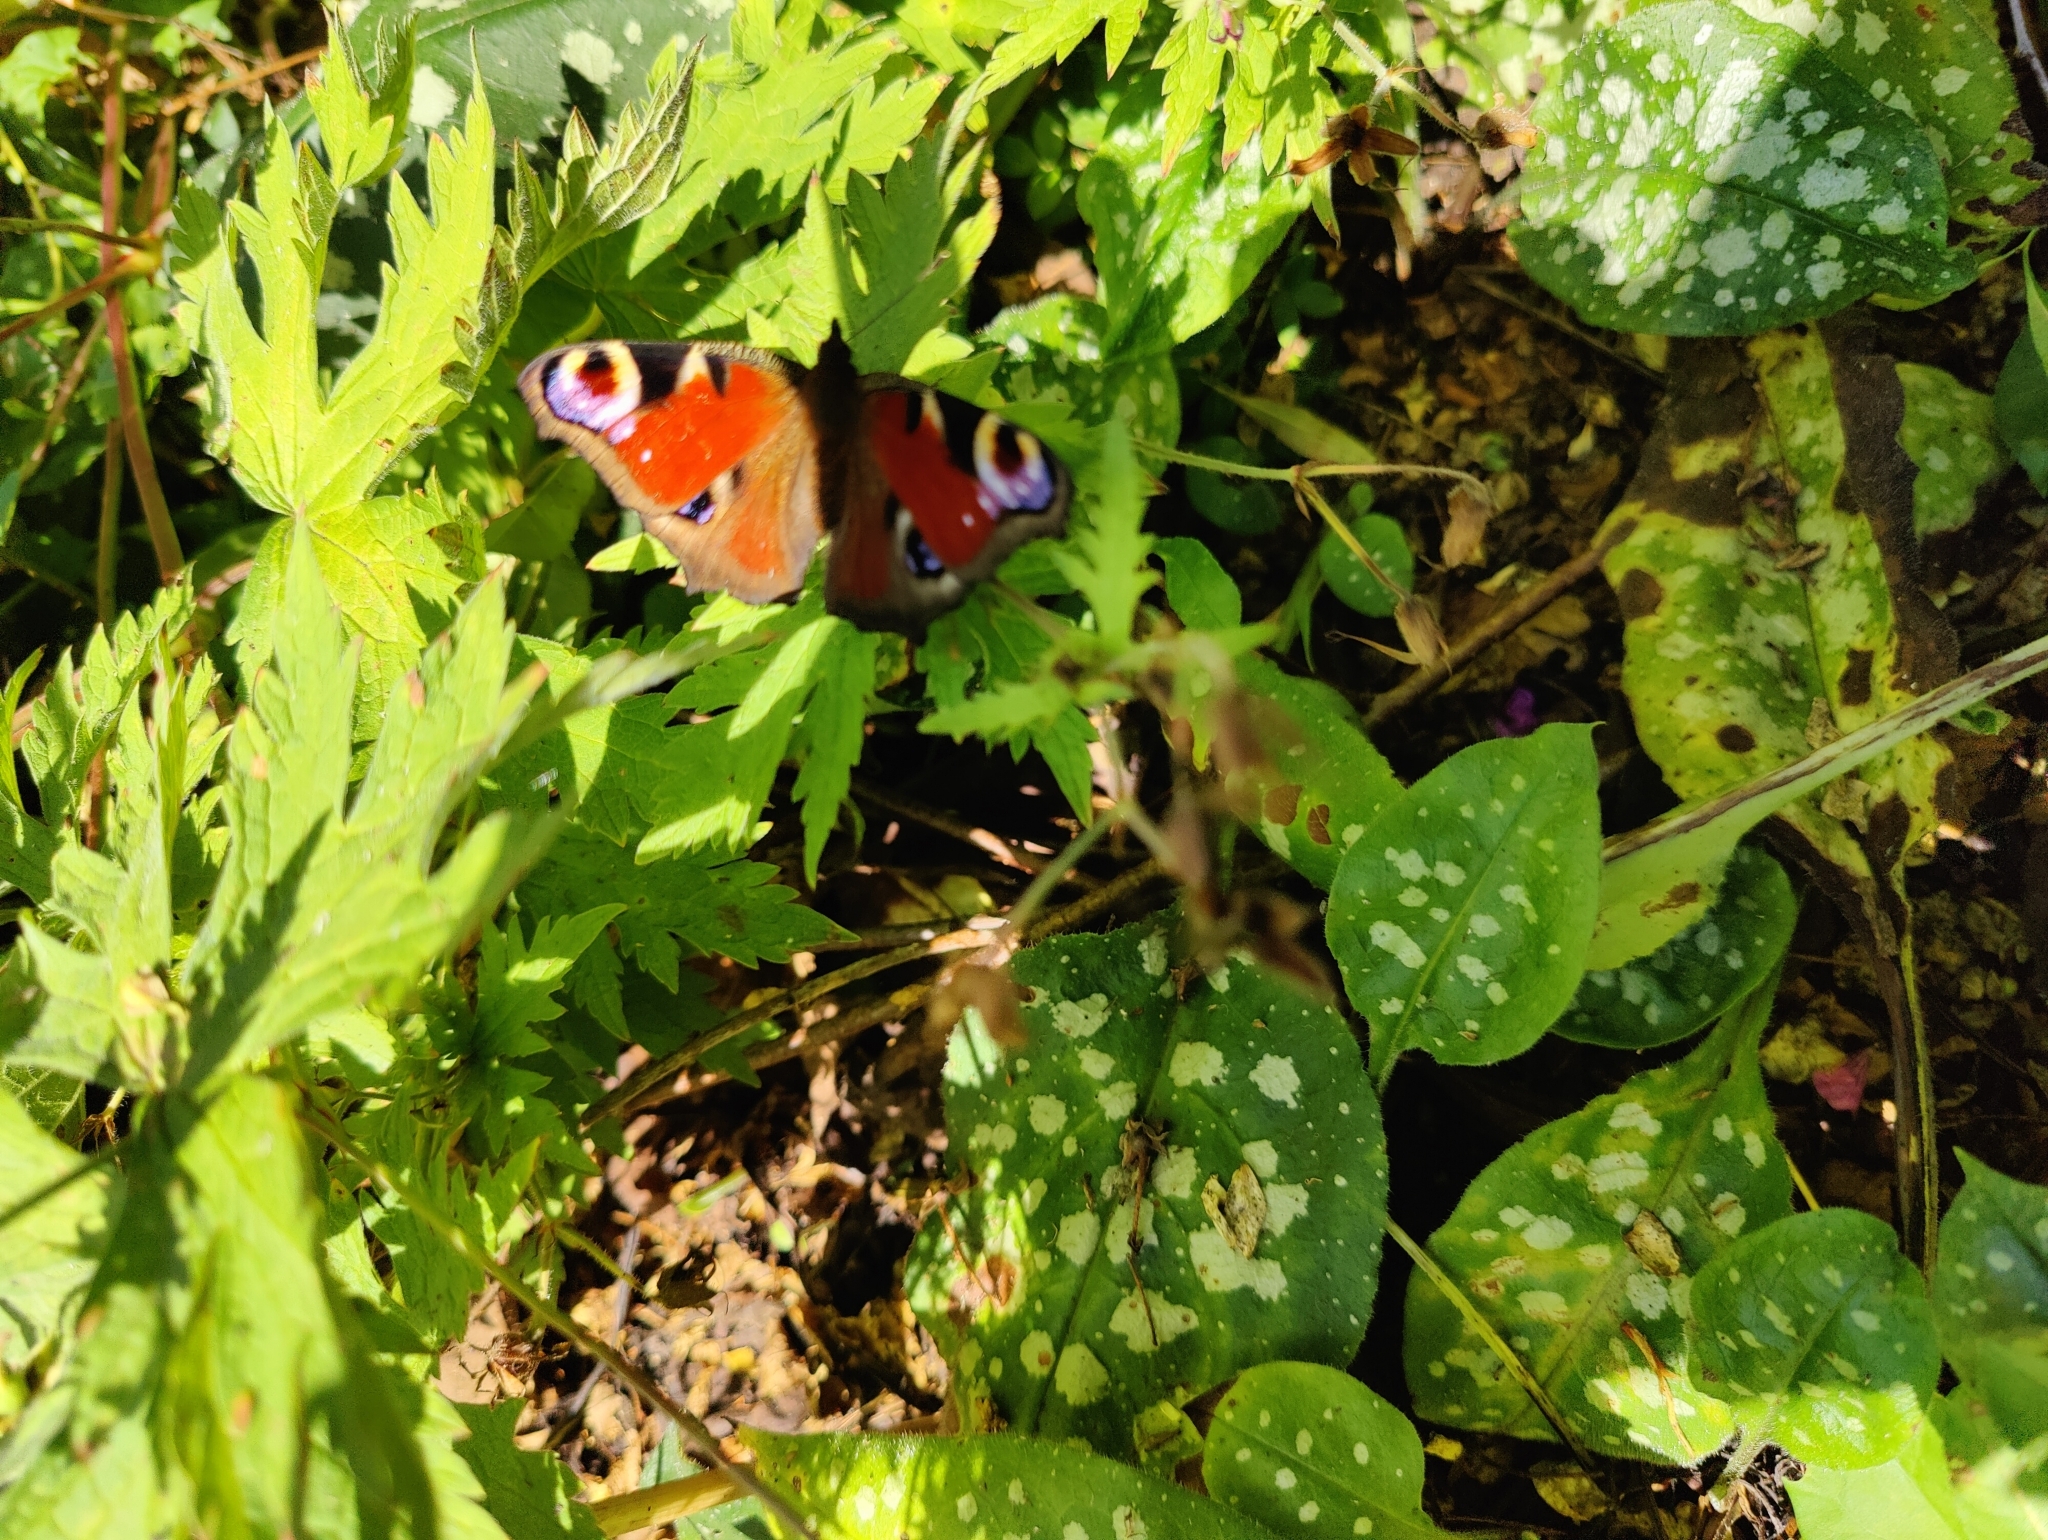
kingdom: Animalia
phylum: Arthropoda
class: Insecta
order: Lepidoptera
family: Nymphalidae
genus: Aglais
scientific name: Aglais io
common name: Peacock
